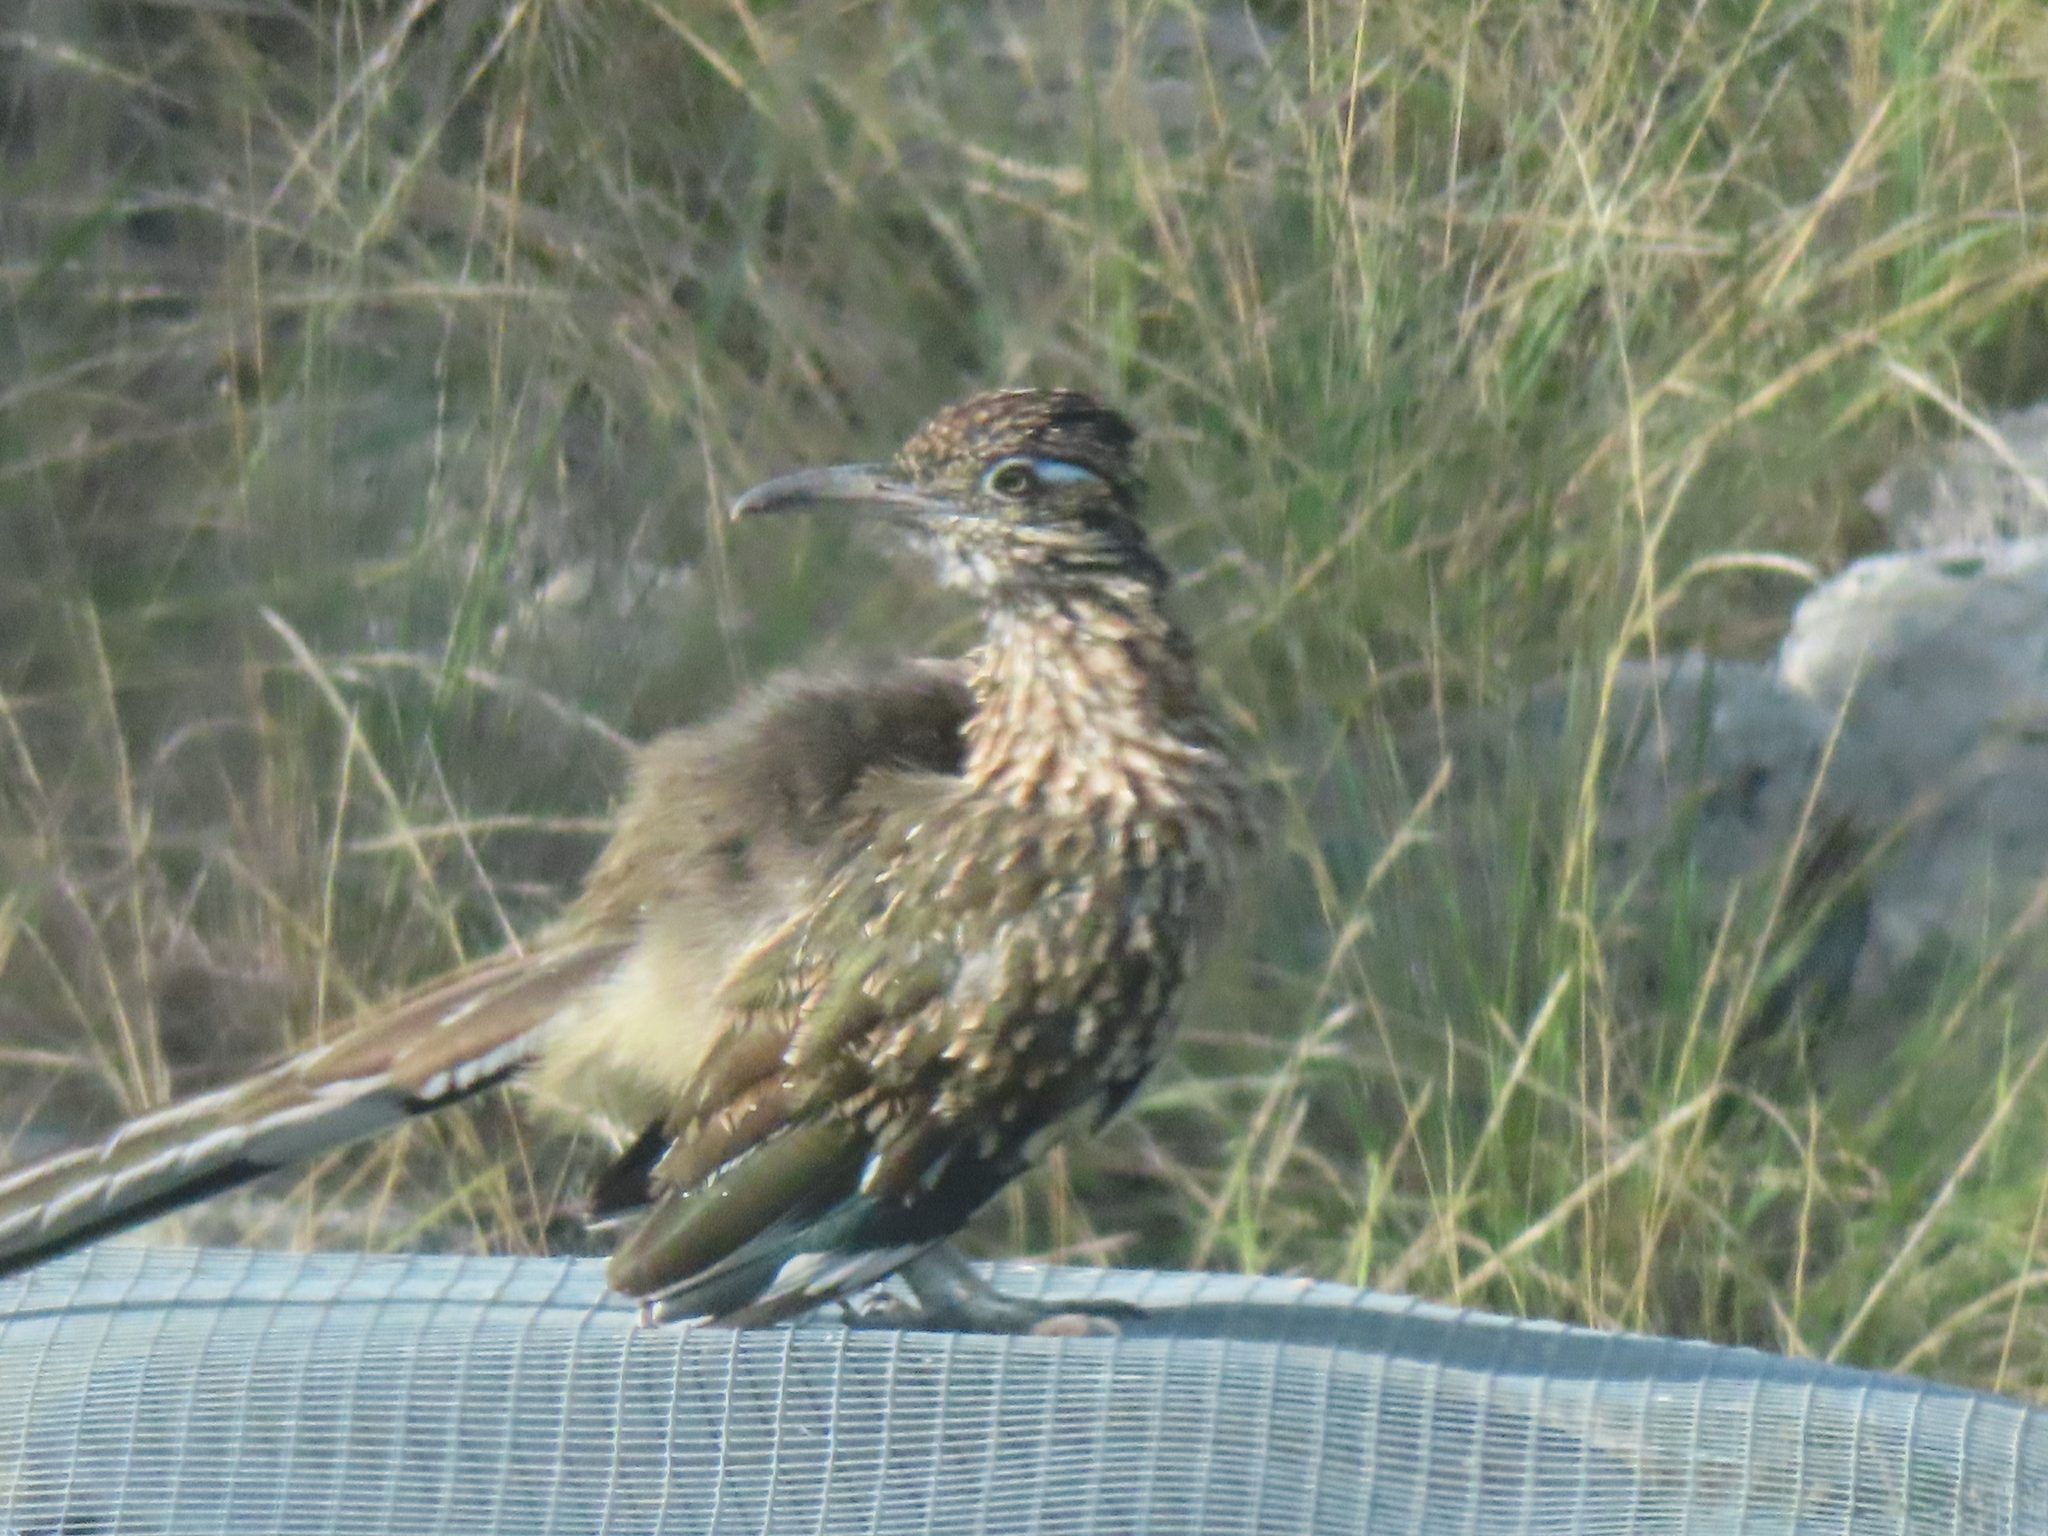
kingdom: Animalia
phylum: Chordata
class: Aves
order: Cuculiformes
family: Cuculidae
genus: Geococcyx
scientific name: Geococcyx californianus
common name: Greater roadrunner
